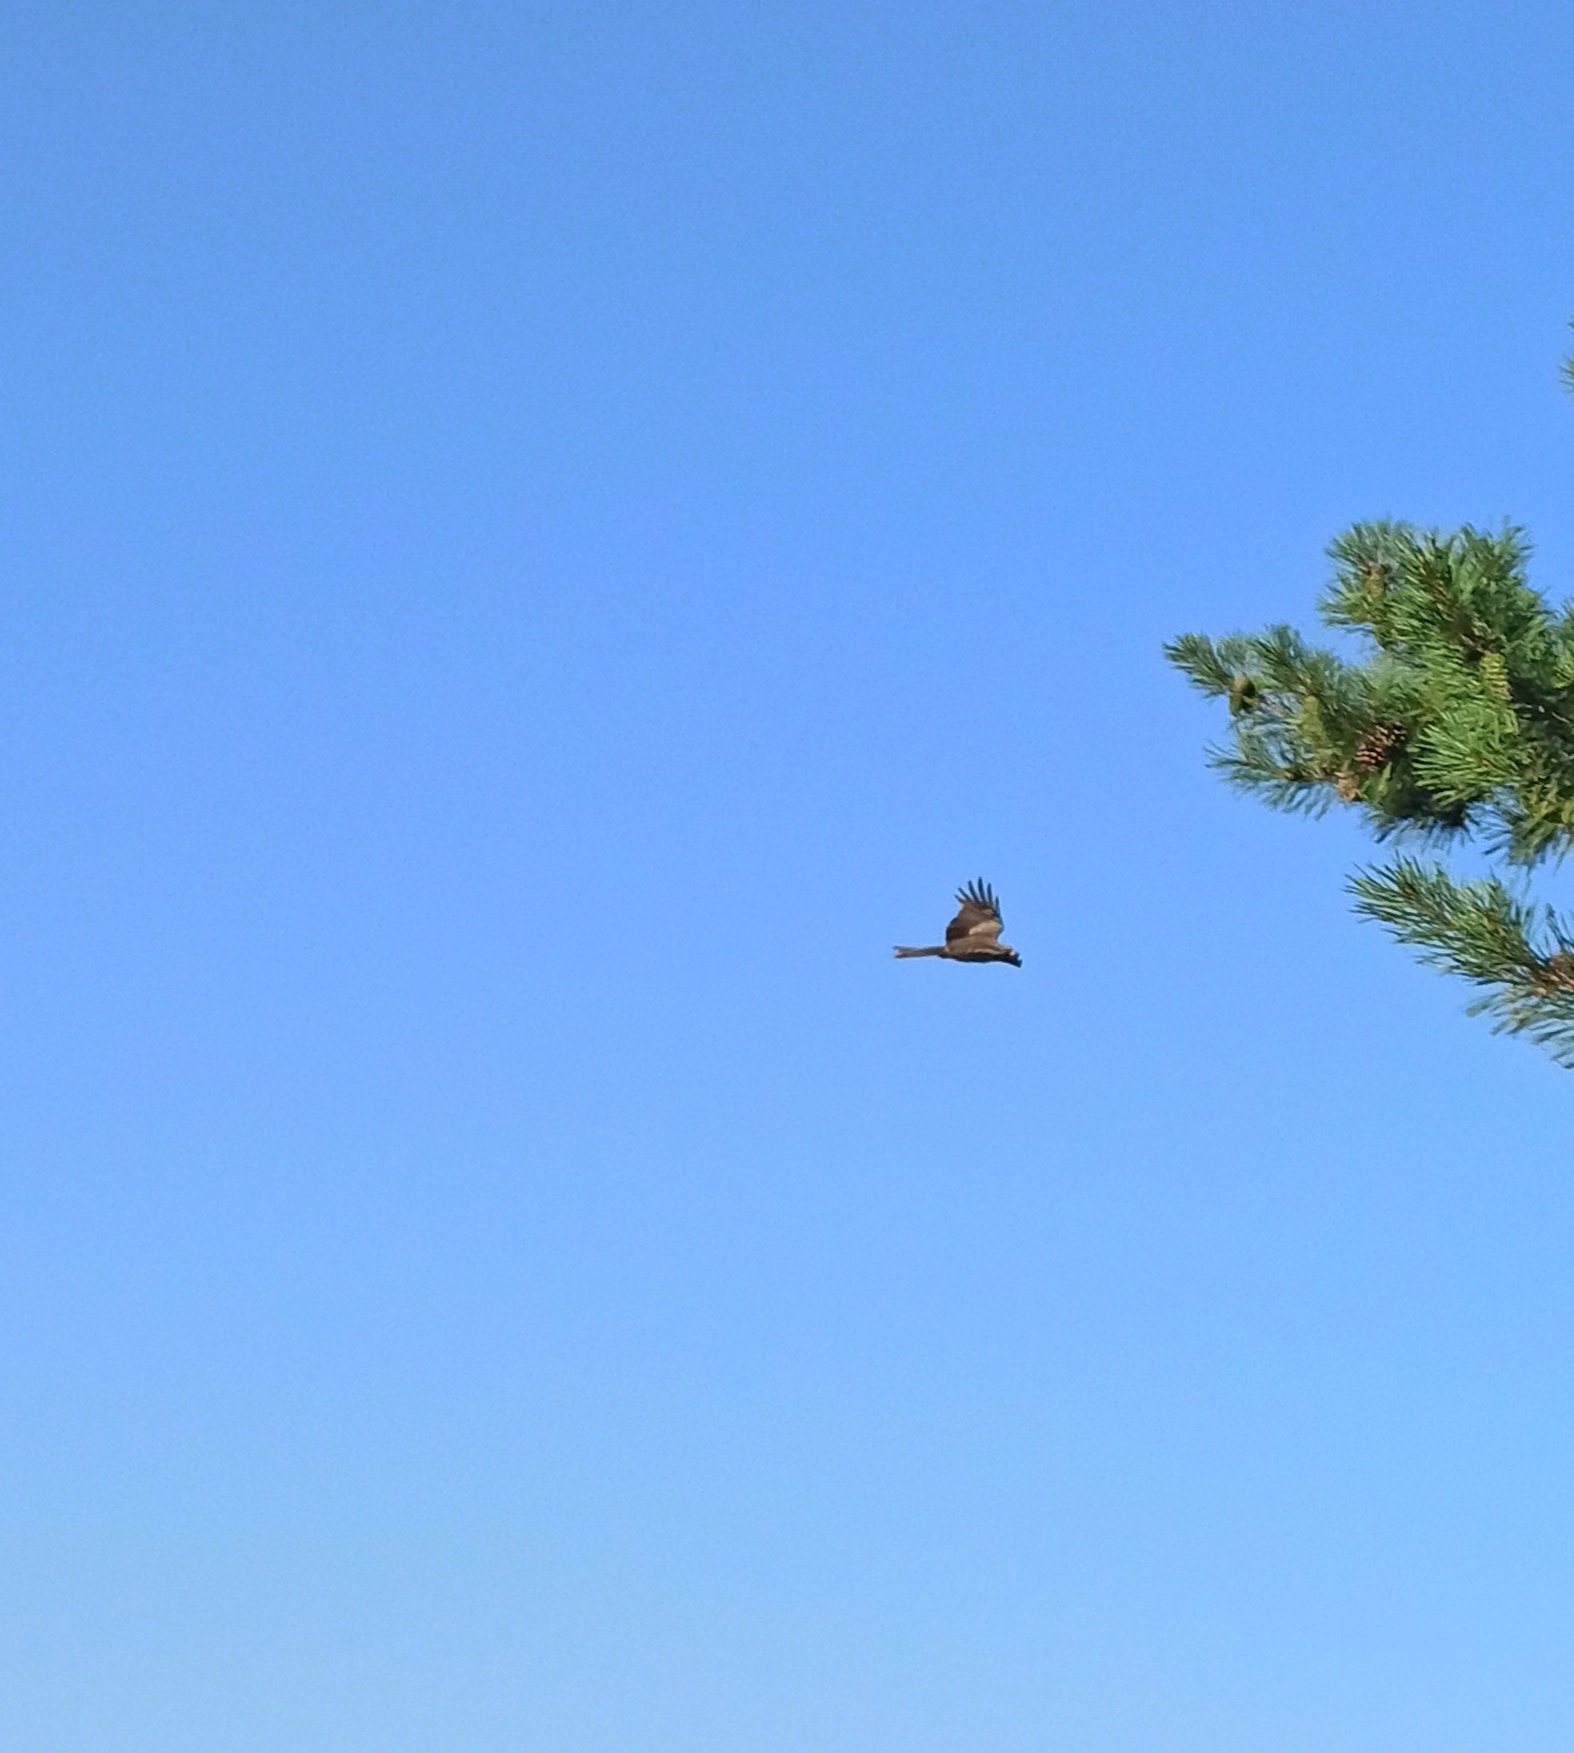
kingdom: Animalia
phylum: Chordata
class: Aves
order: Accipitriformes
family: Accipitridae
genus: Milvus
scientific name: Milvus migrans
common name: Black kite
